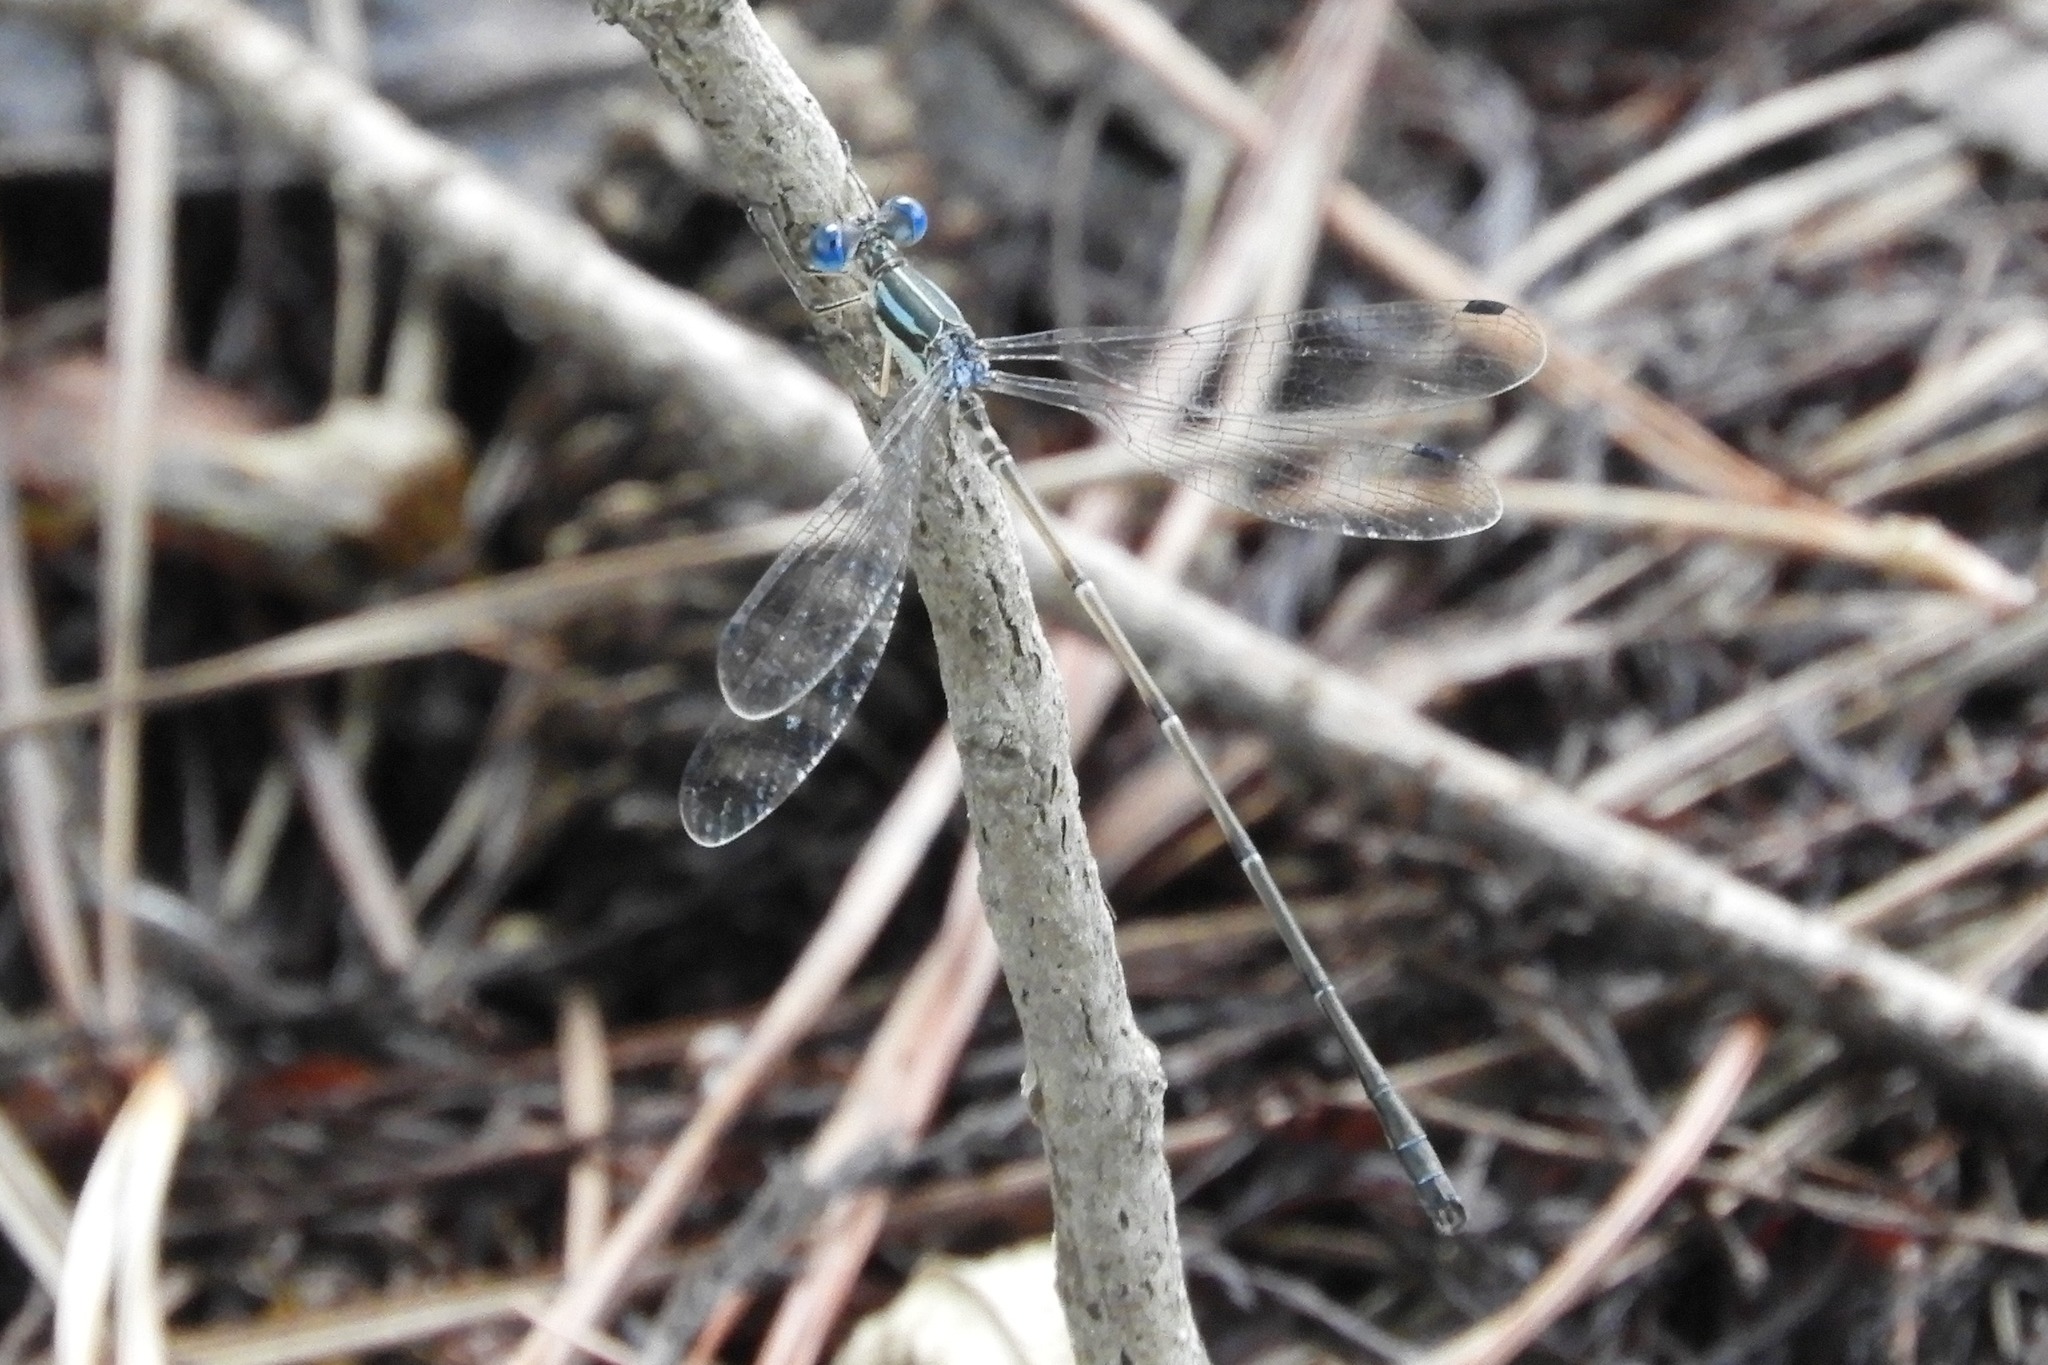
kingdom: Animalia
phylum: Arthropoda
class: Insecta
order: Odonata
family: Lestidae
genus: Lestes
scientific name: Lestes rectangularis
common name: Slender spreadwing
